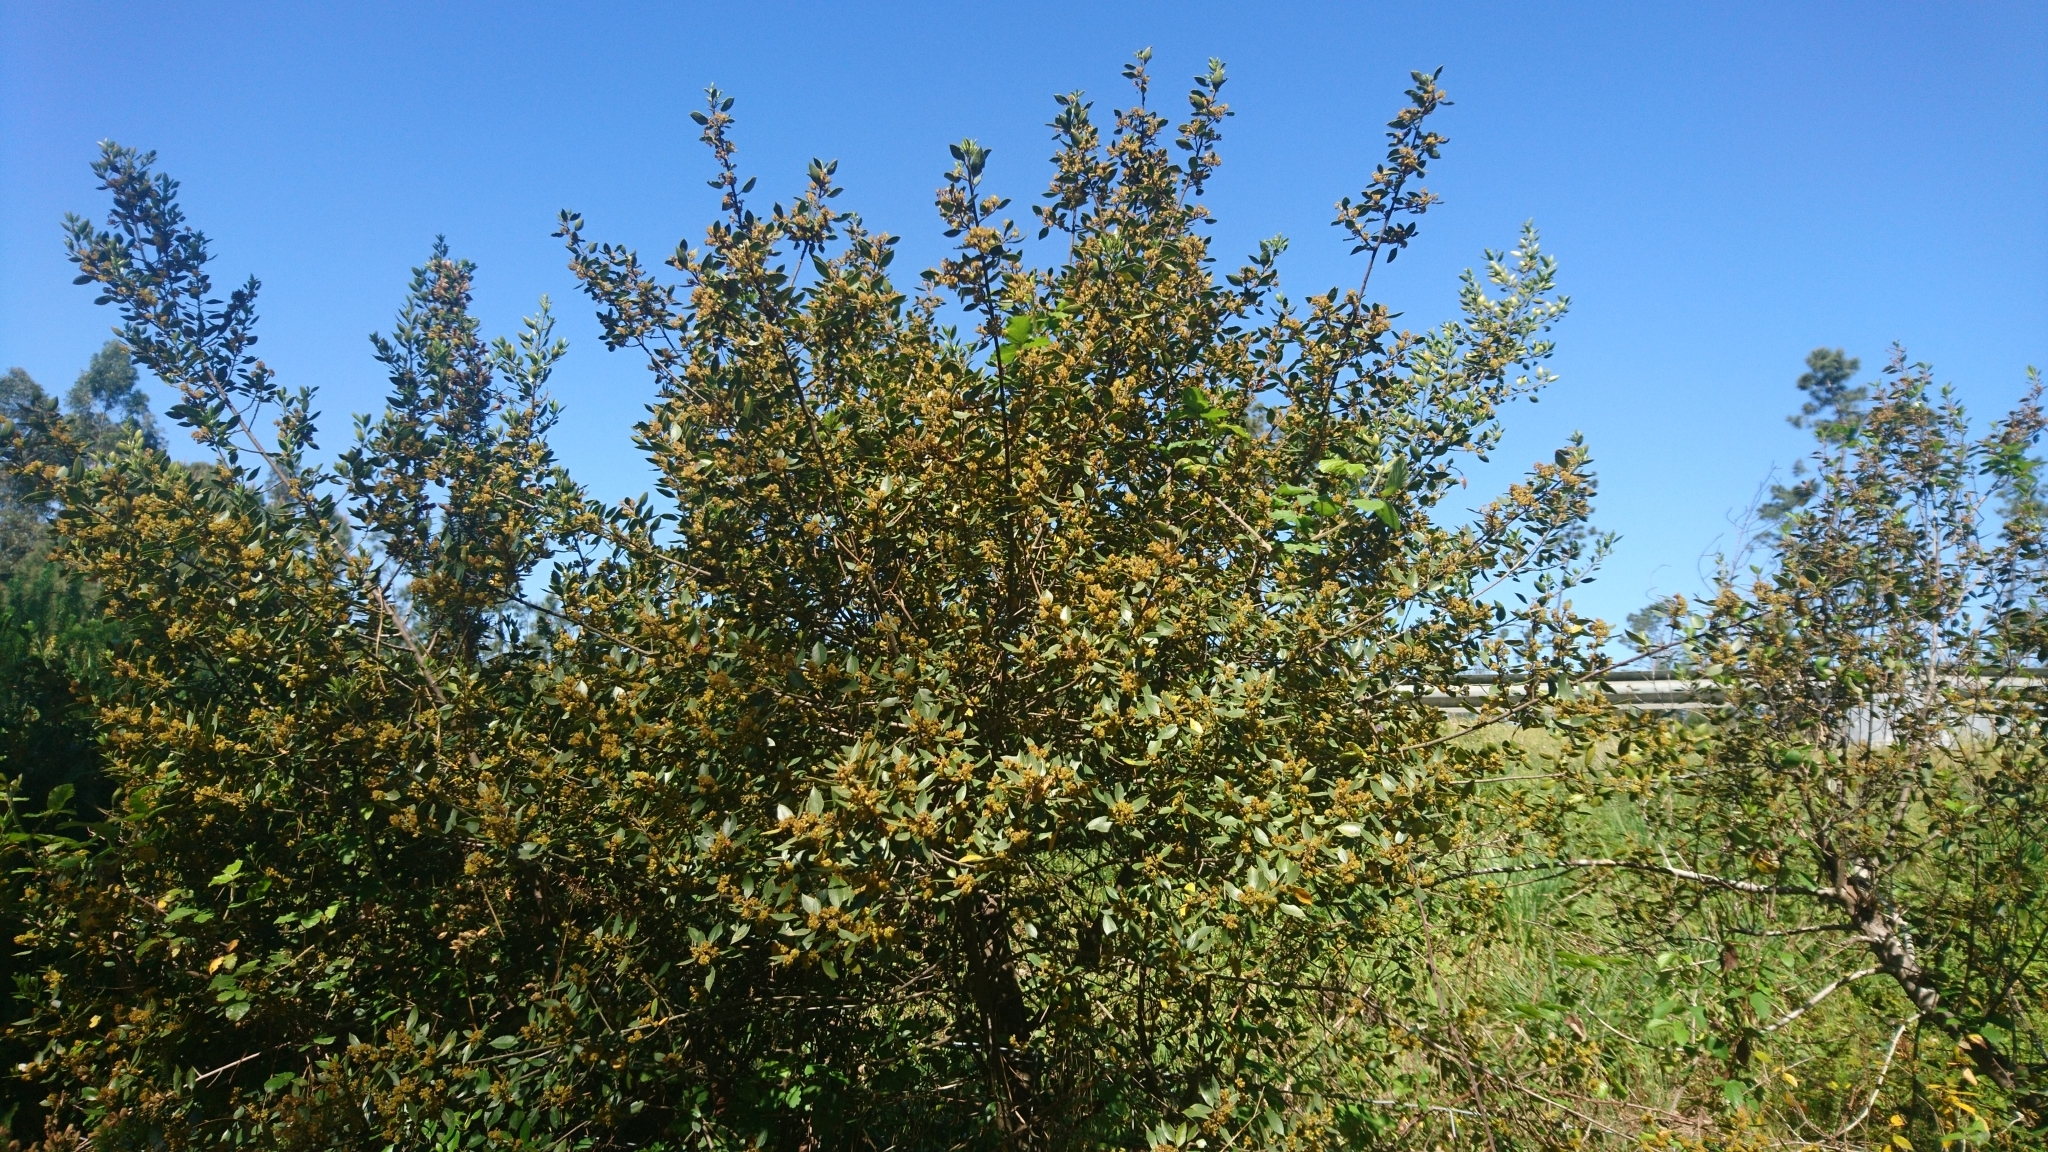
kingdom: Plantae
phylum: Tracheophyta
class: Magnoliopsida
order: Rosales
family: Rhamnaceae
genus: Rhamnus
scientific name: Rhamnus alaternus
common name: Mediterranean buckthorn
